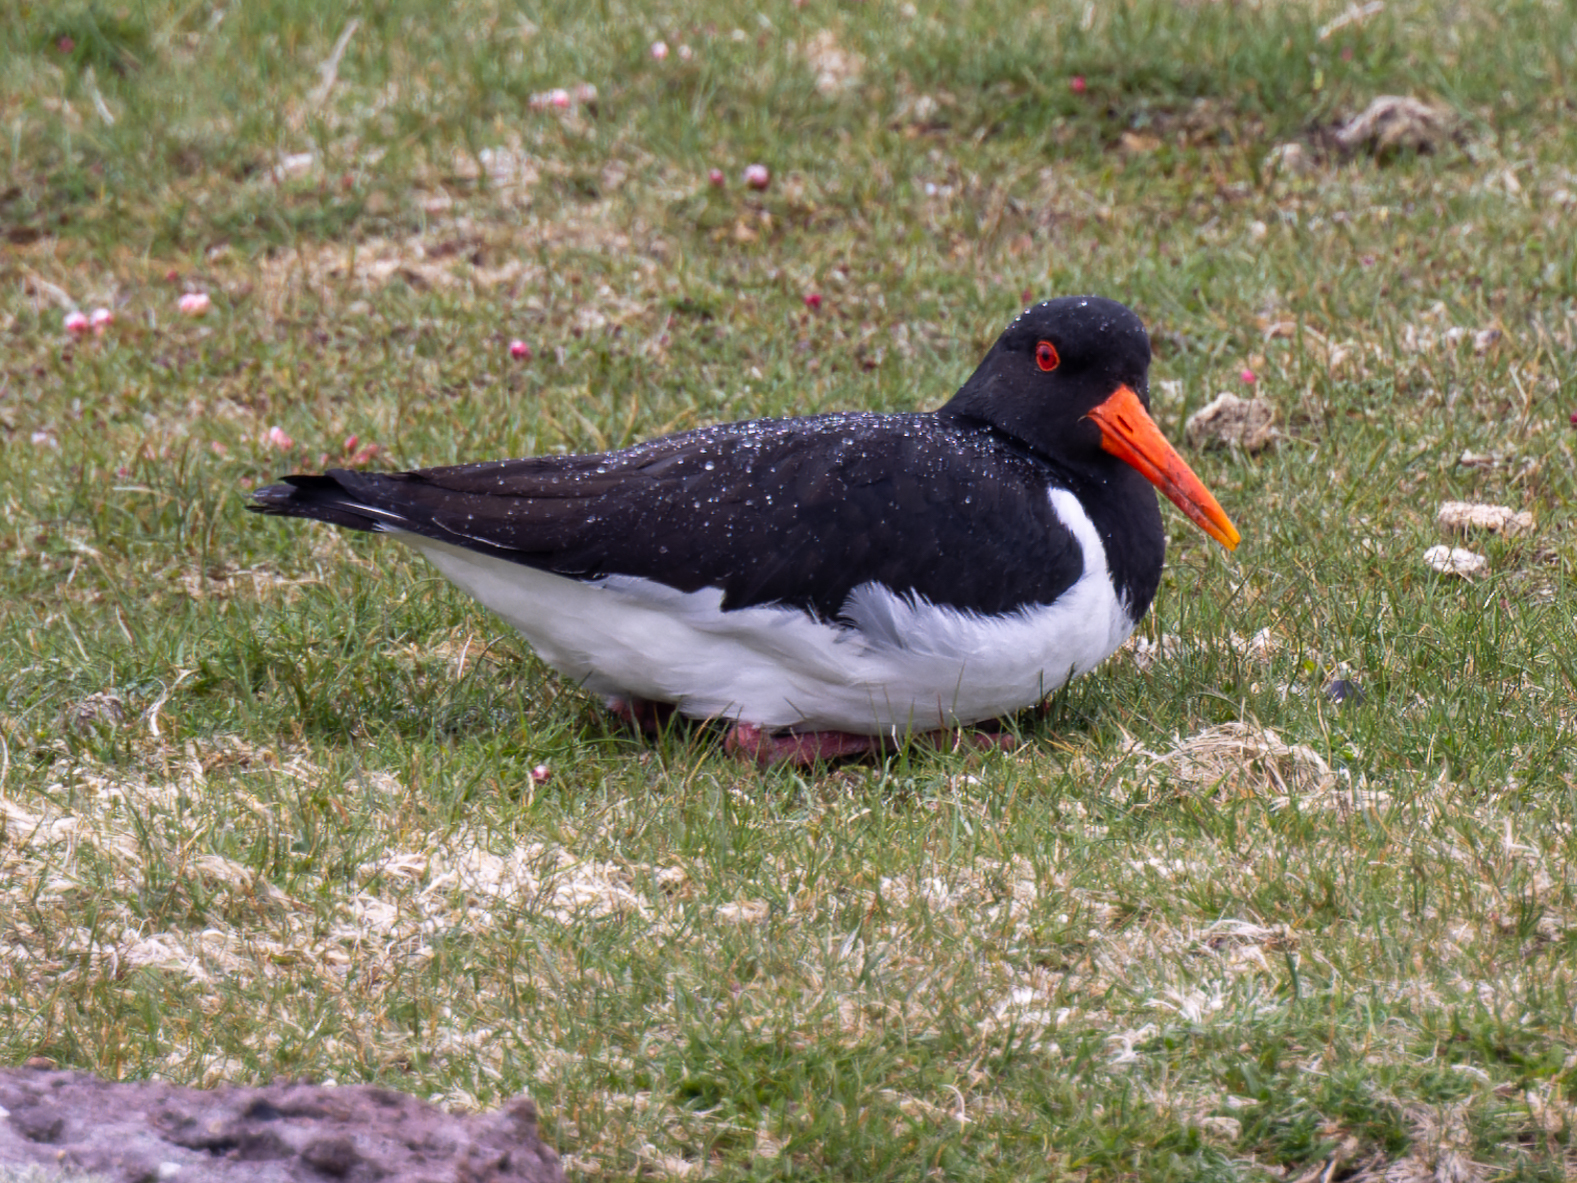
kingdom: Animalia
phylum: Chordata
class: Aves
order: Charadriiformes
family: Haematopodidae
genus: Haematopus
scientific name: Haematopus ostralegus
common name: Eurasian oystercatcher
